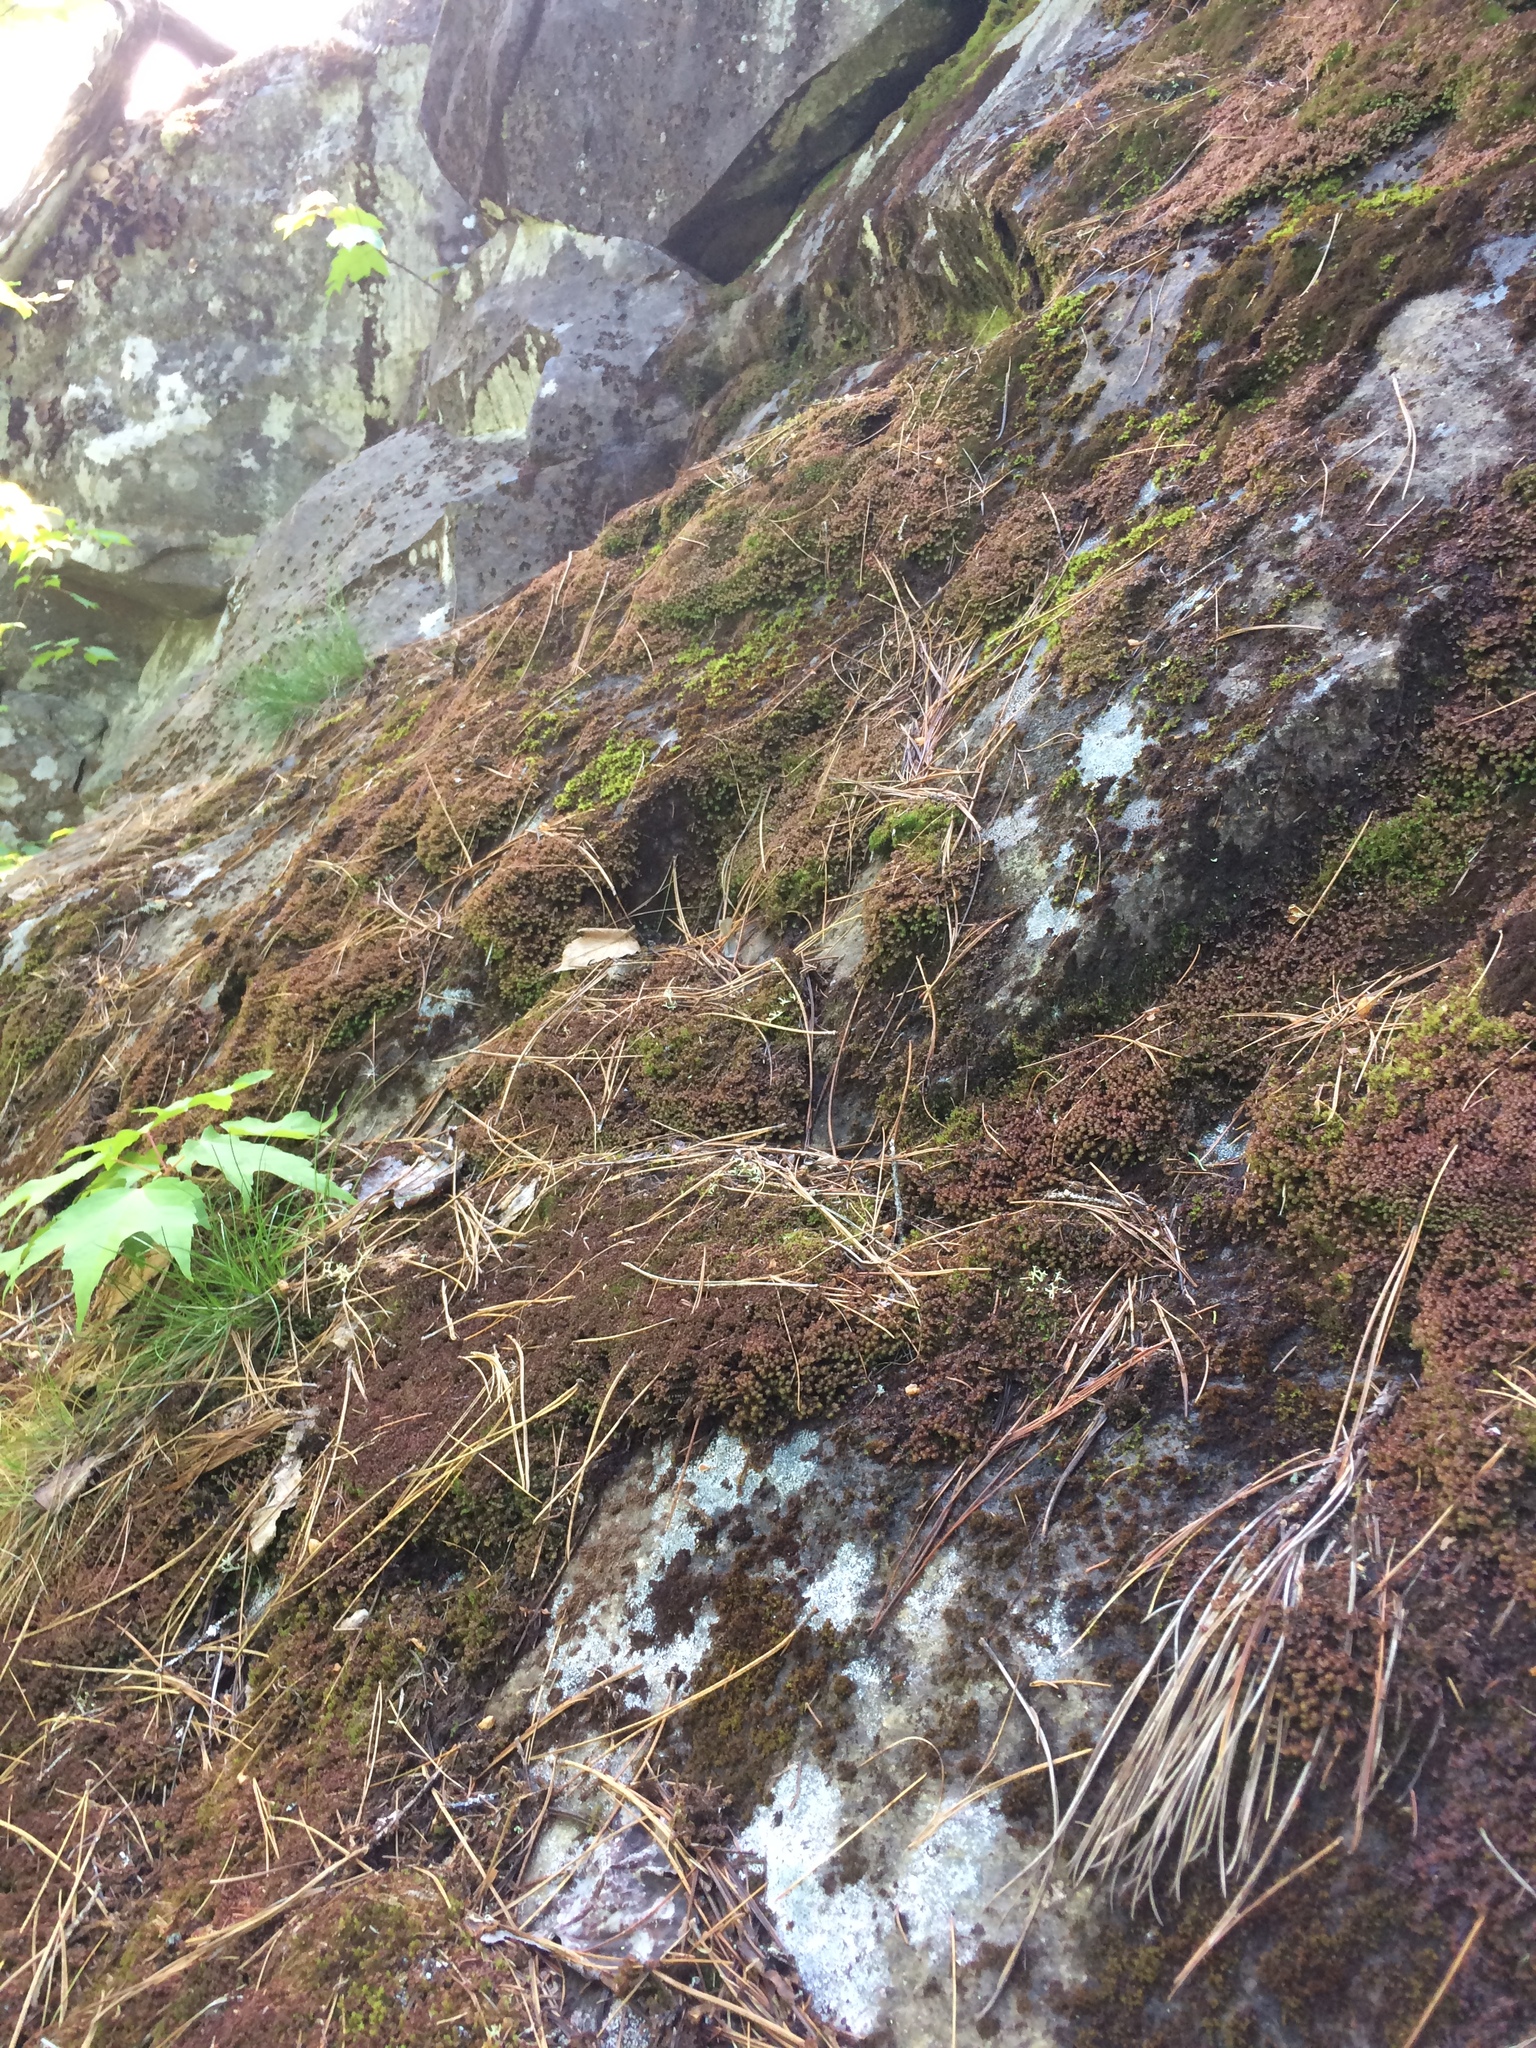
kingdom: Plantae
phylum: Marchantiophyta
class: Jungermanniopsida
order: Ptilidiales
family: Ptilidiaceae
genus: Ptilidium
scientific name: Ptilidium ciliare
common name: Ciliate fringewort
